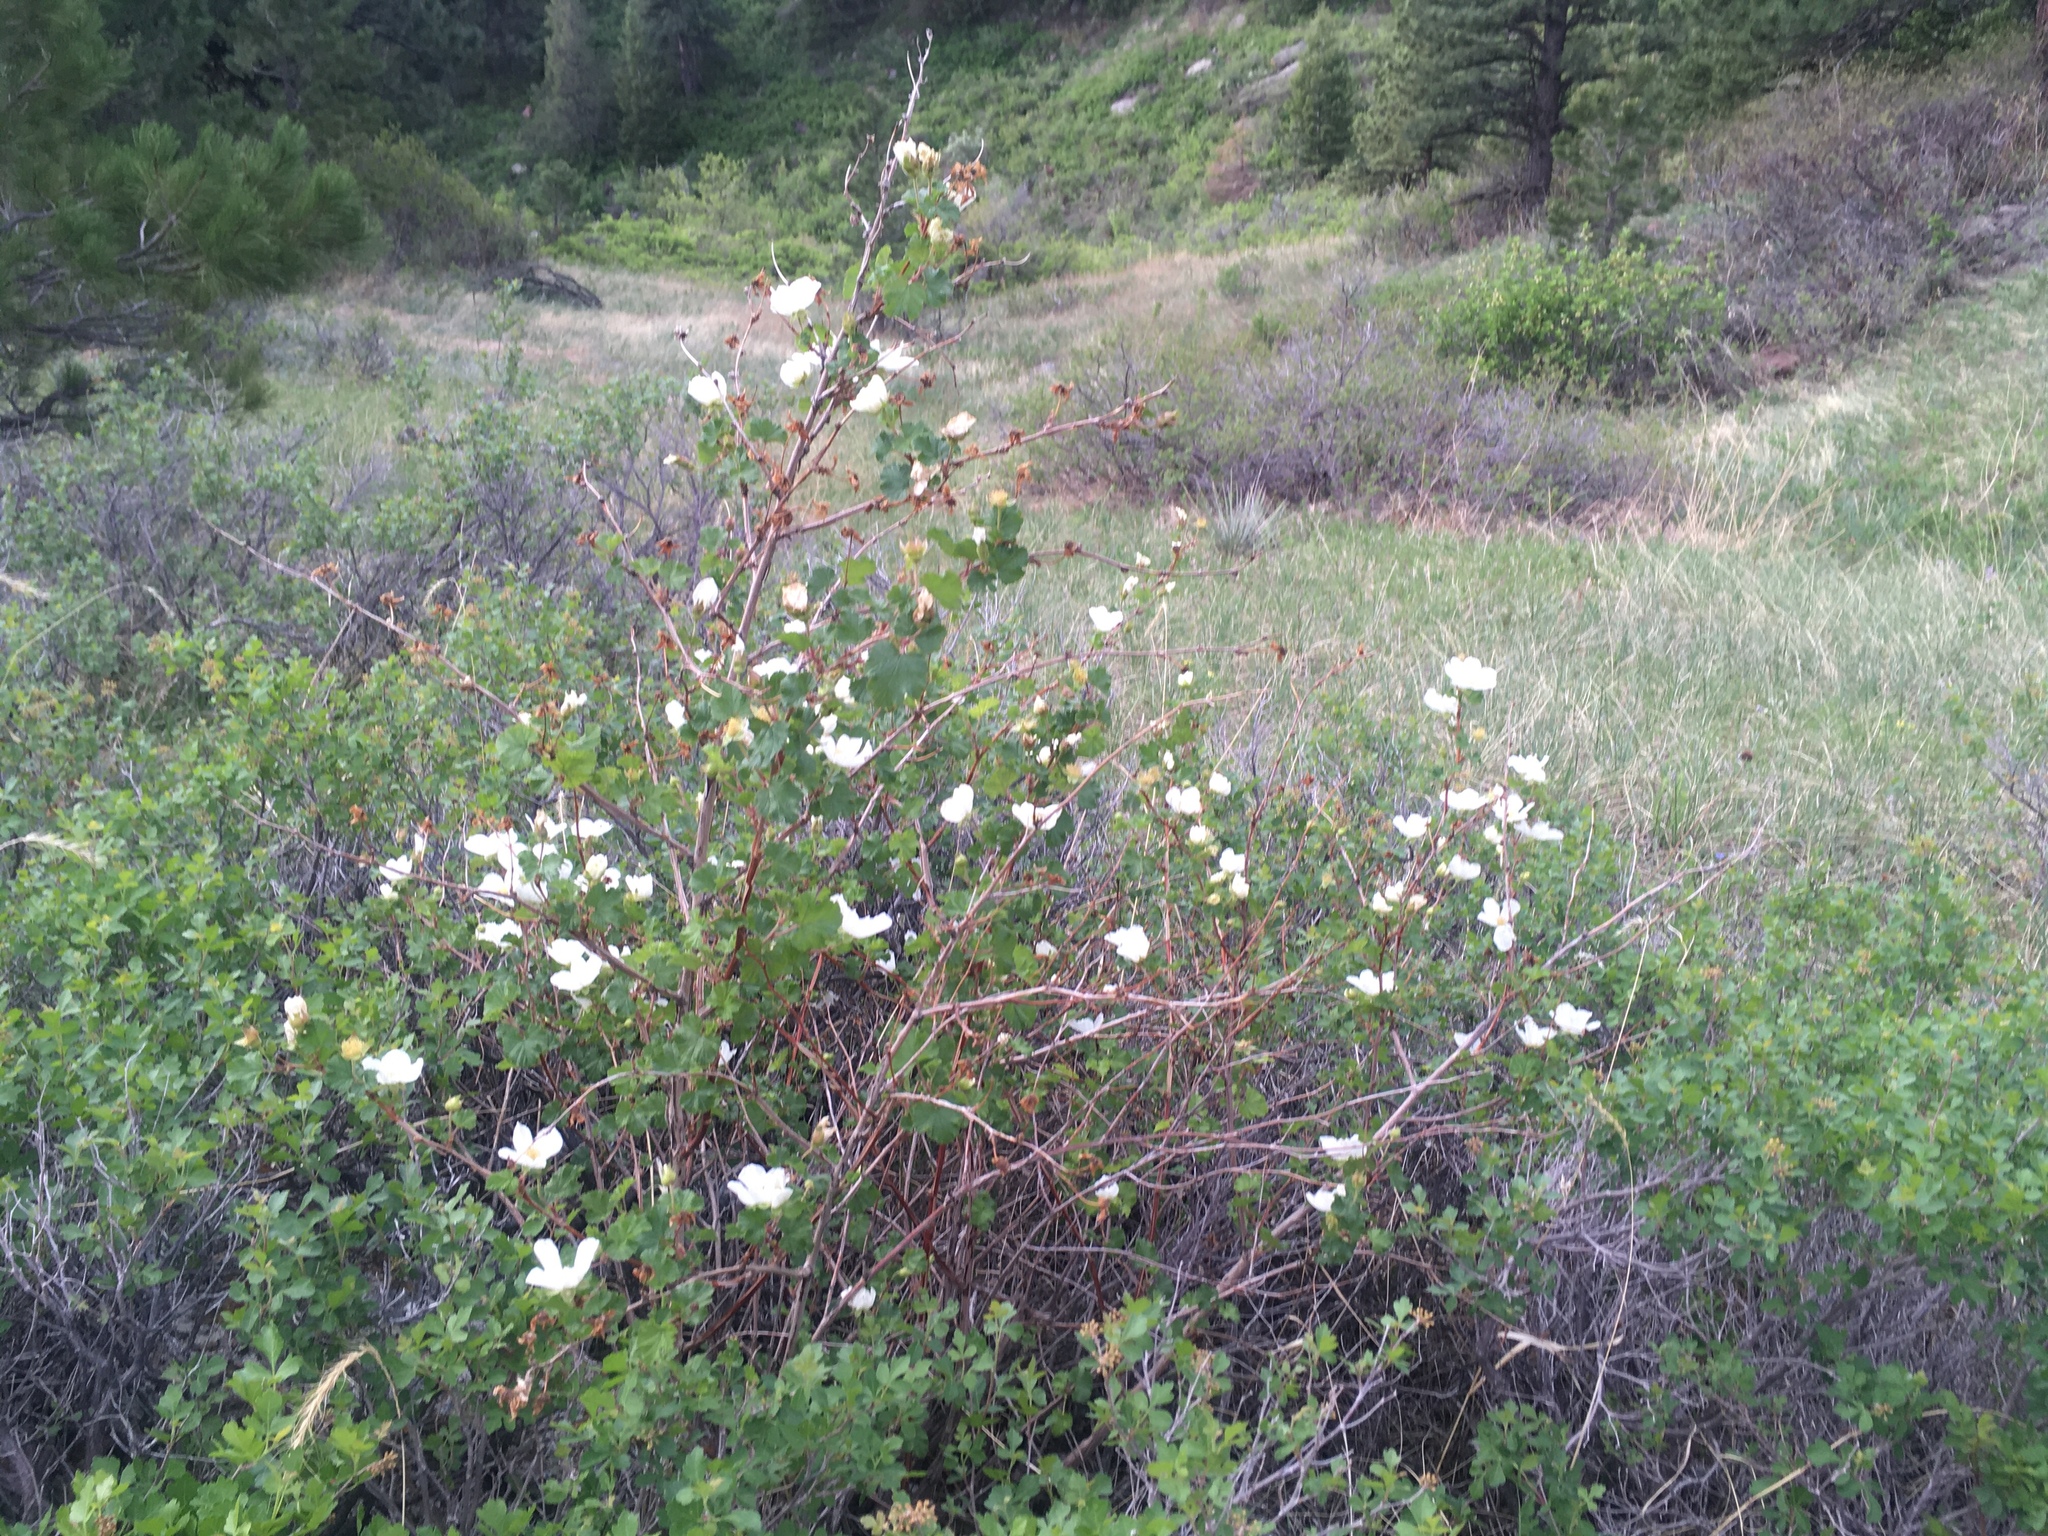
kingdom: Plantae
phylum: Tracheophyta
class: Magnoliopsida
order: Rosales
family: Rosaceae
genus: Rubus
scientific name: Rubus deliciosus
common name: Rocky mountain raspberry
